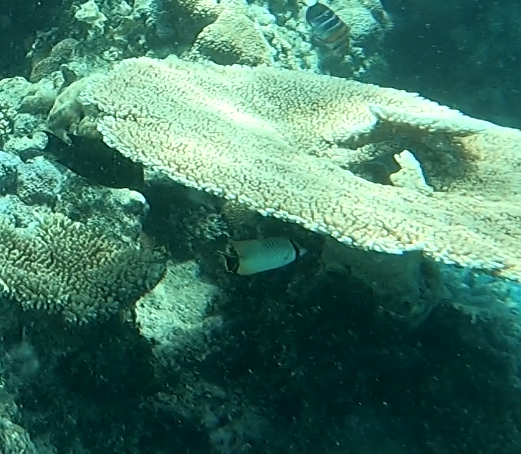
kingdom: Animalia
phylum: Chordata
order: Perciformes
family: Chaetodontidae
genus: Chaetodon
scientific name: Chaetodon trifascialis
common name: Chevroned butterflyfish
